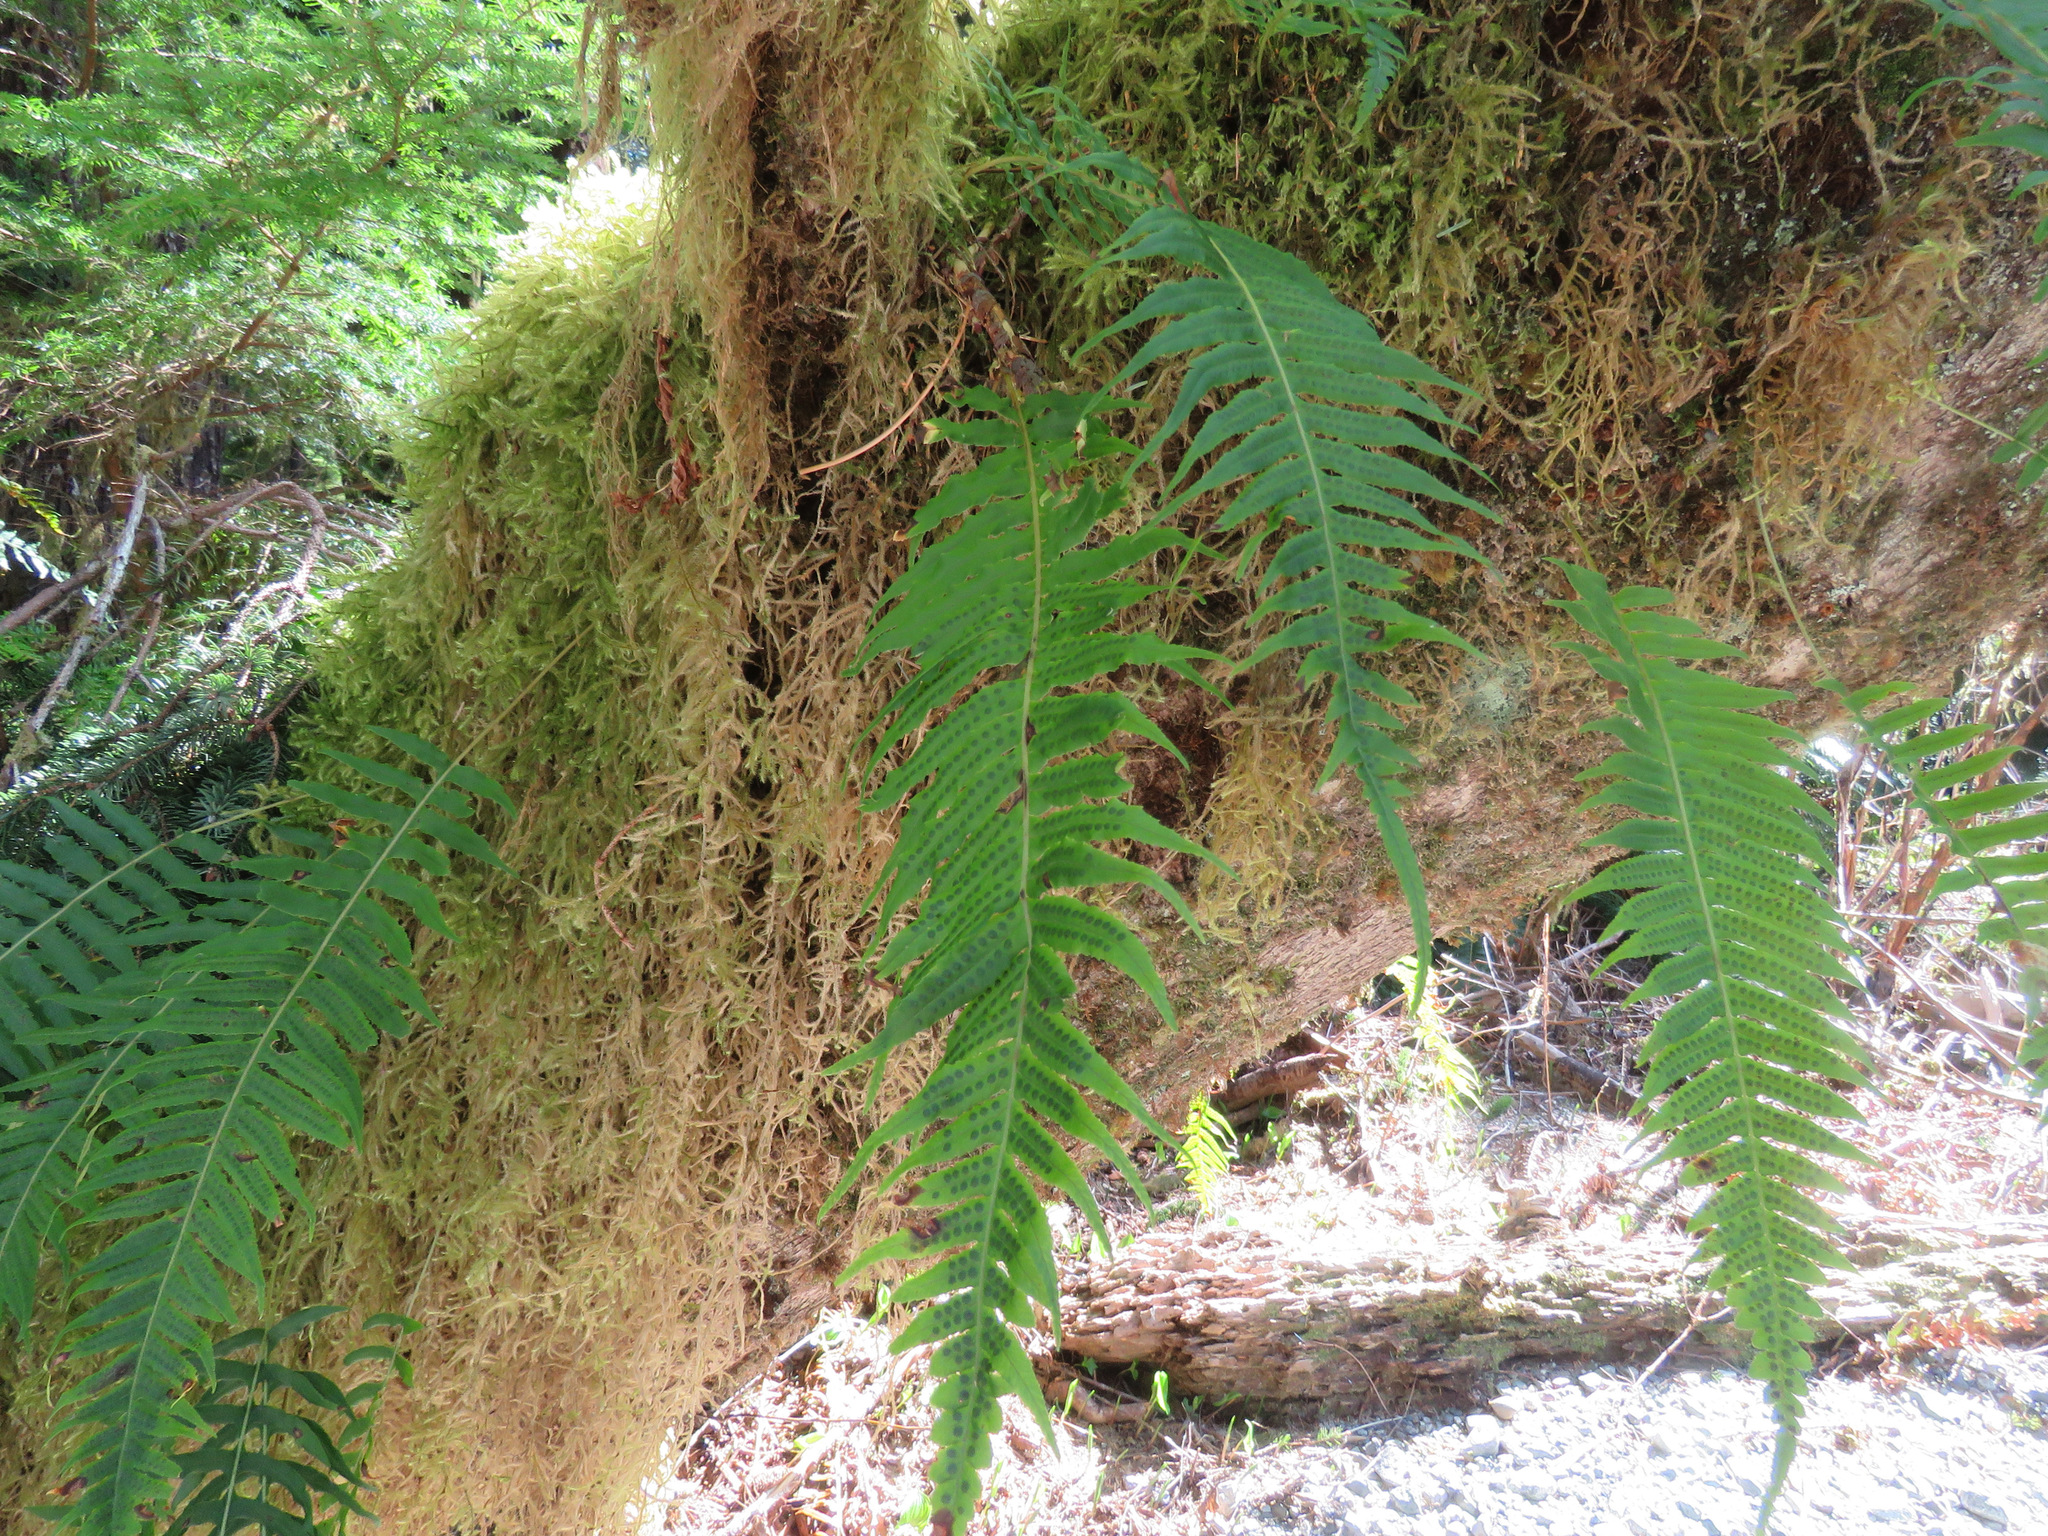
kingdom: Plantae
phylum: Tracheophyta
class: Polypodiopsida
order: Polypodiales
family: Polypodiaceae
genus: Polypodium
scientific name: Polypodium glycyrrhiza
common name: Licorice fern
